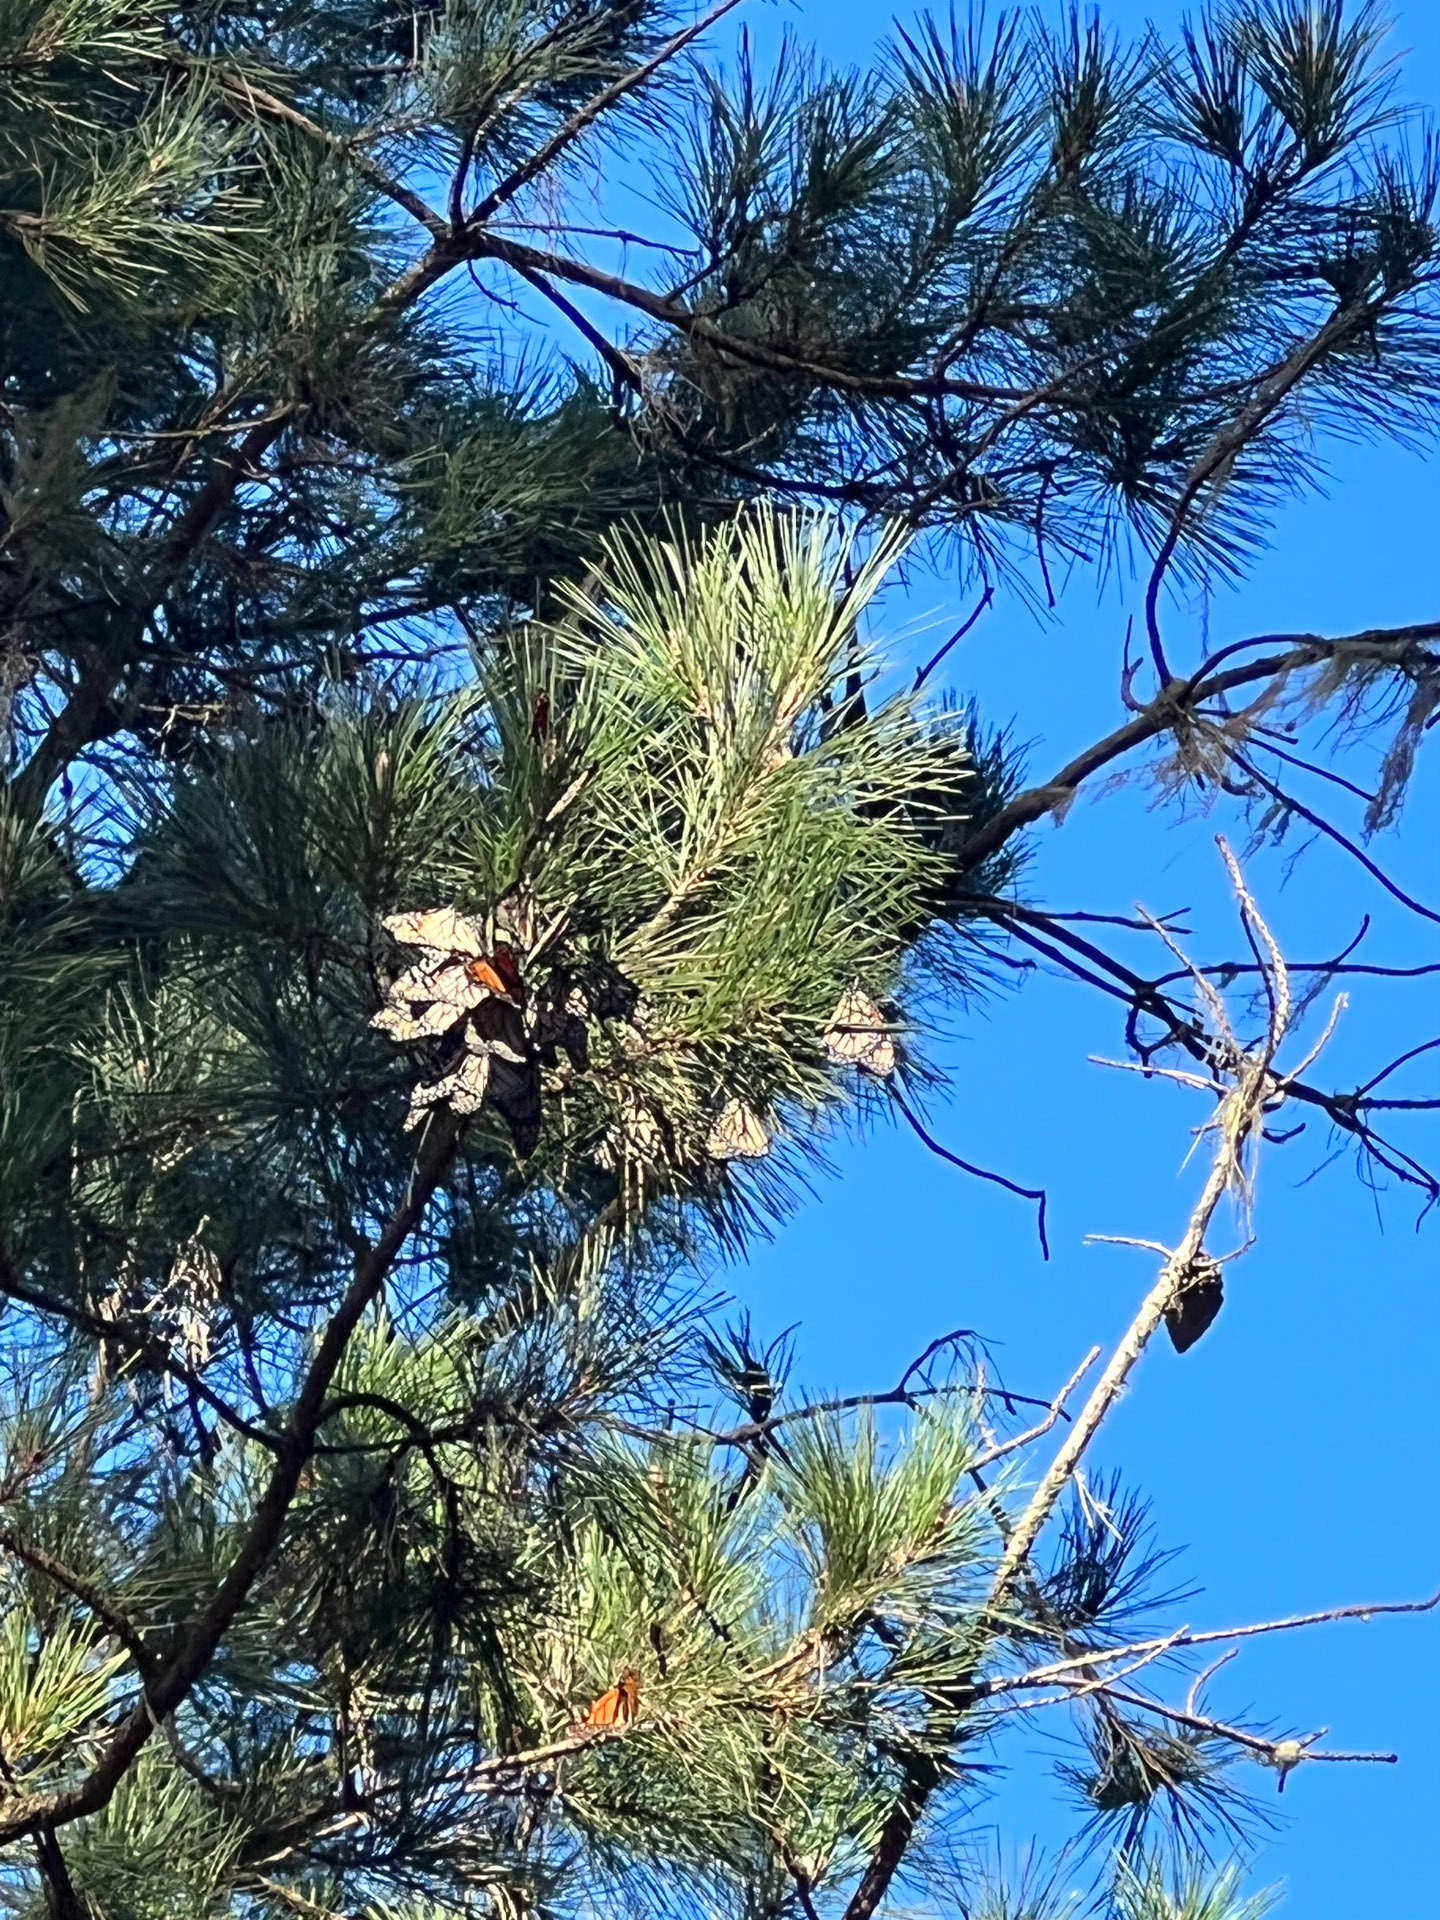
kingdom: Animalia
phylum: Arthropoda
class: Insecta
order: Lepidoptera
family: Nymphalidae
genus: Danaus
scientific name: Danaus plexippus
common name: Monarch
